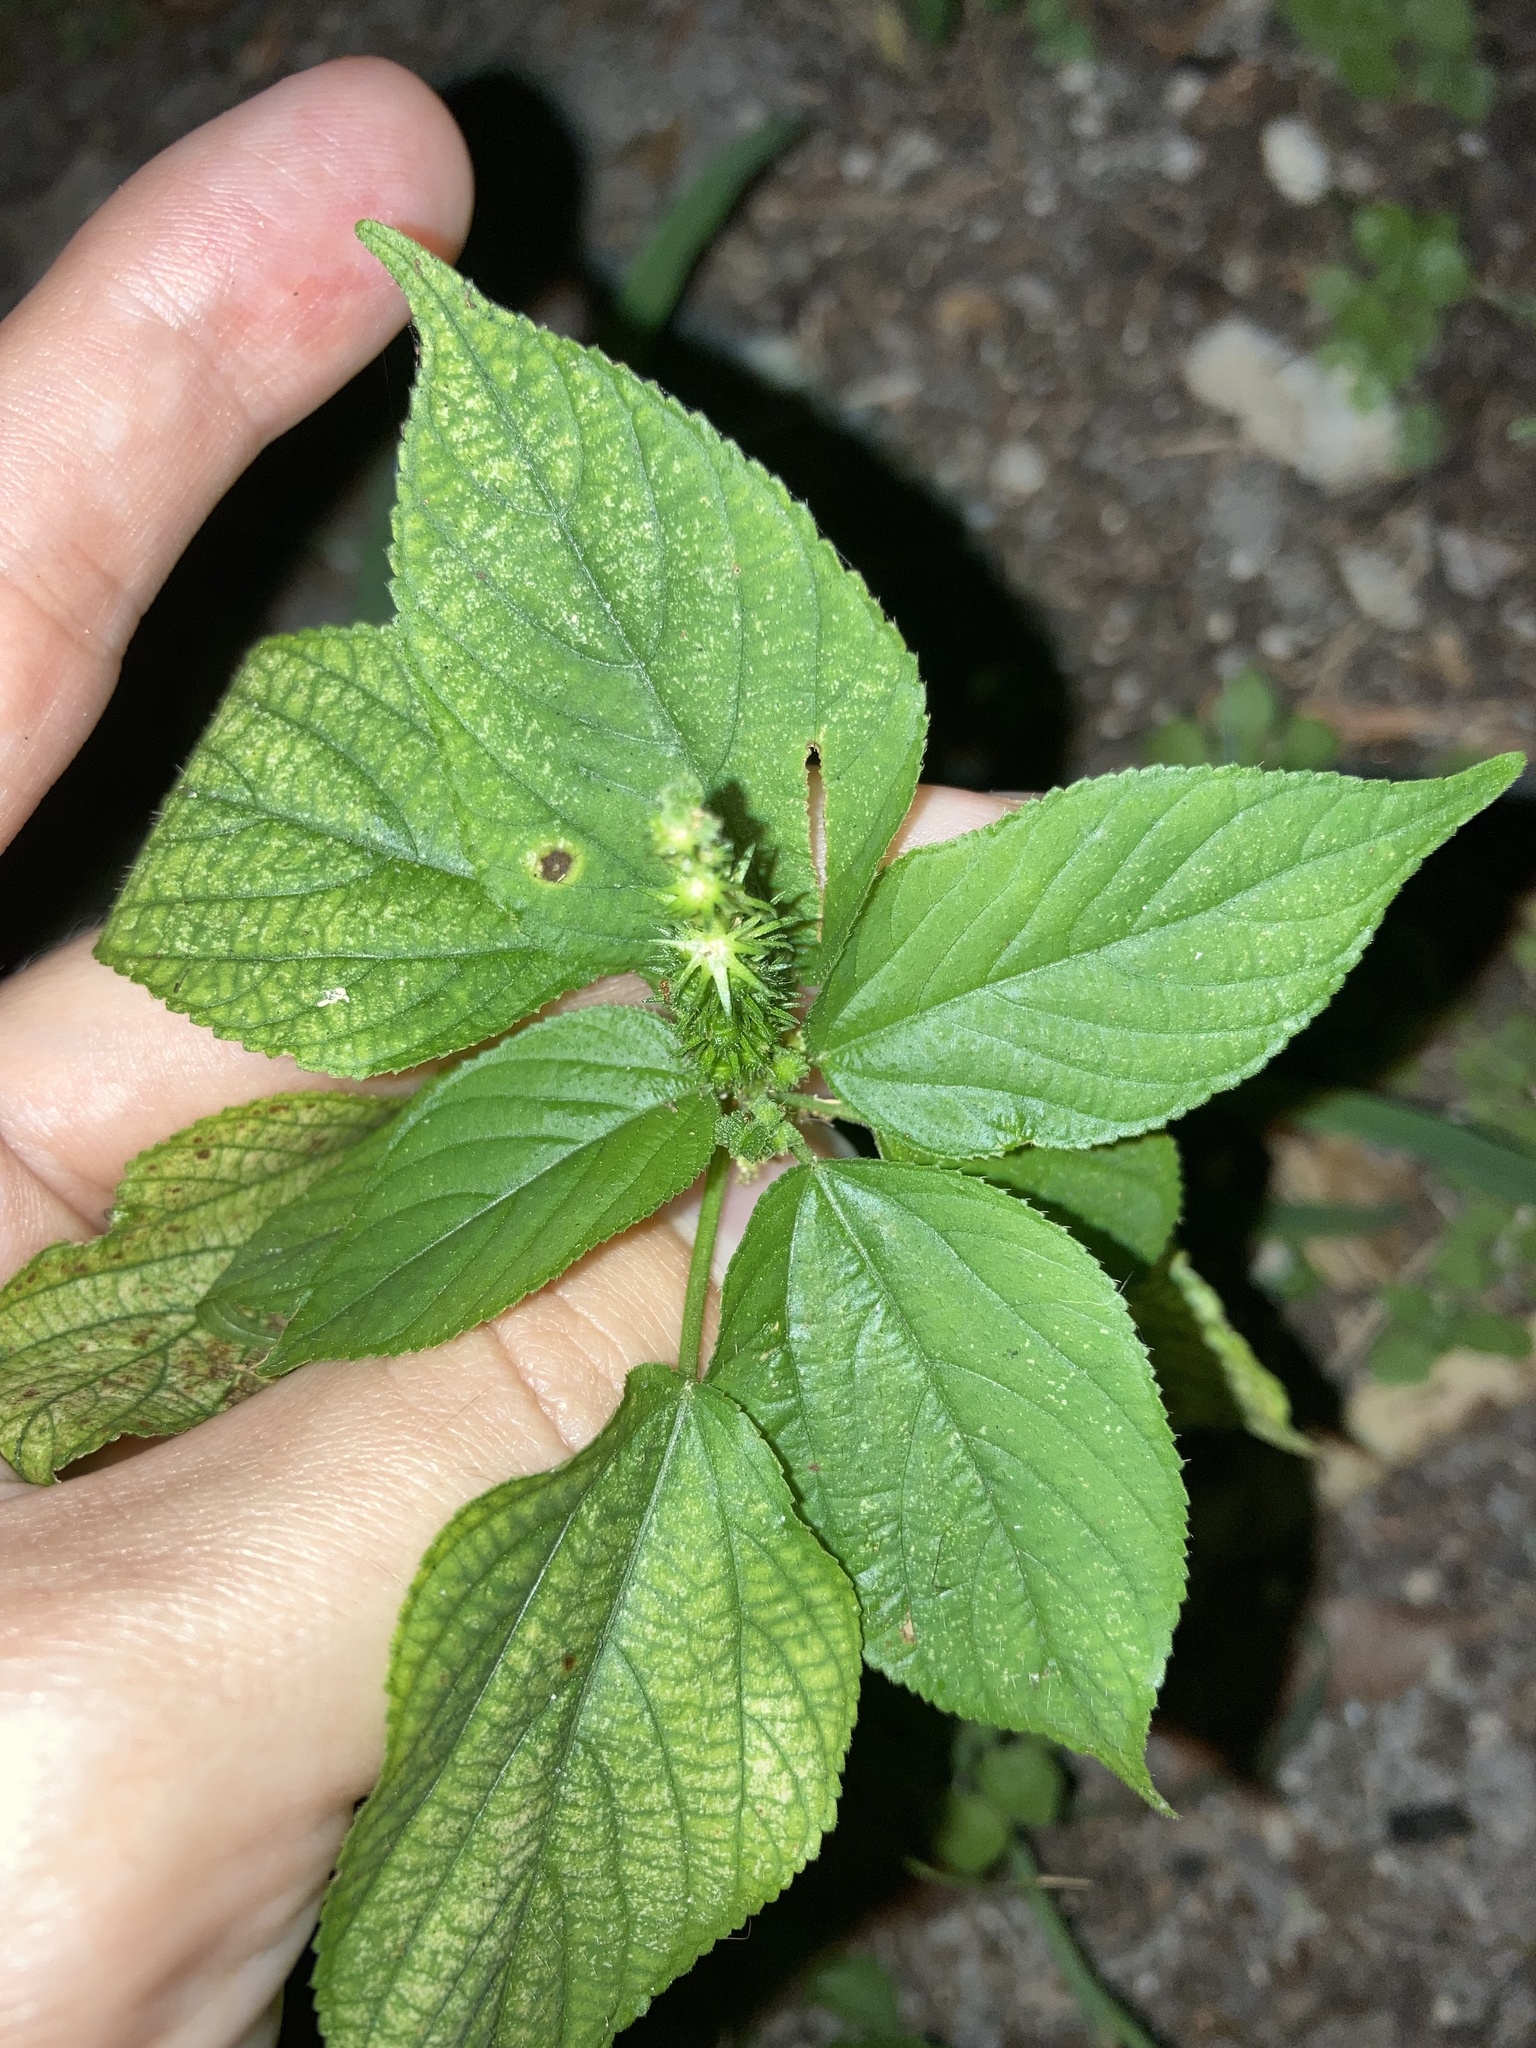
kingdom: Plantae
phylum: Tracheophyta
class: Magnoliopsida
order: Malpighiales
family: Euphorbiaceae
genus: Acalypha
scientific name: Acalypha setosa
